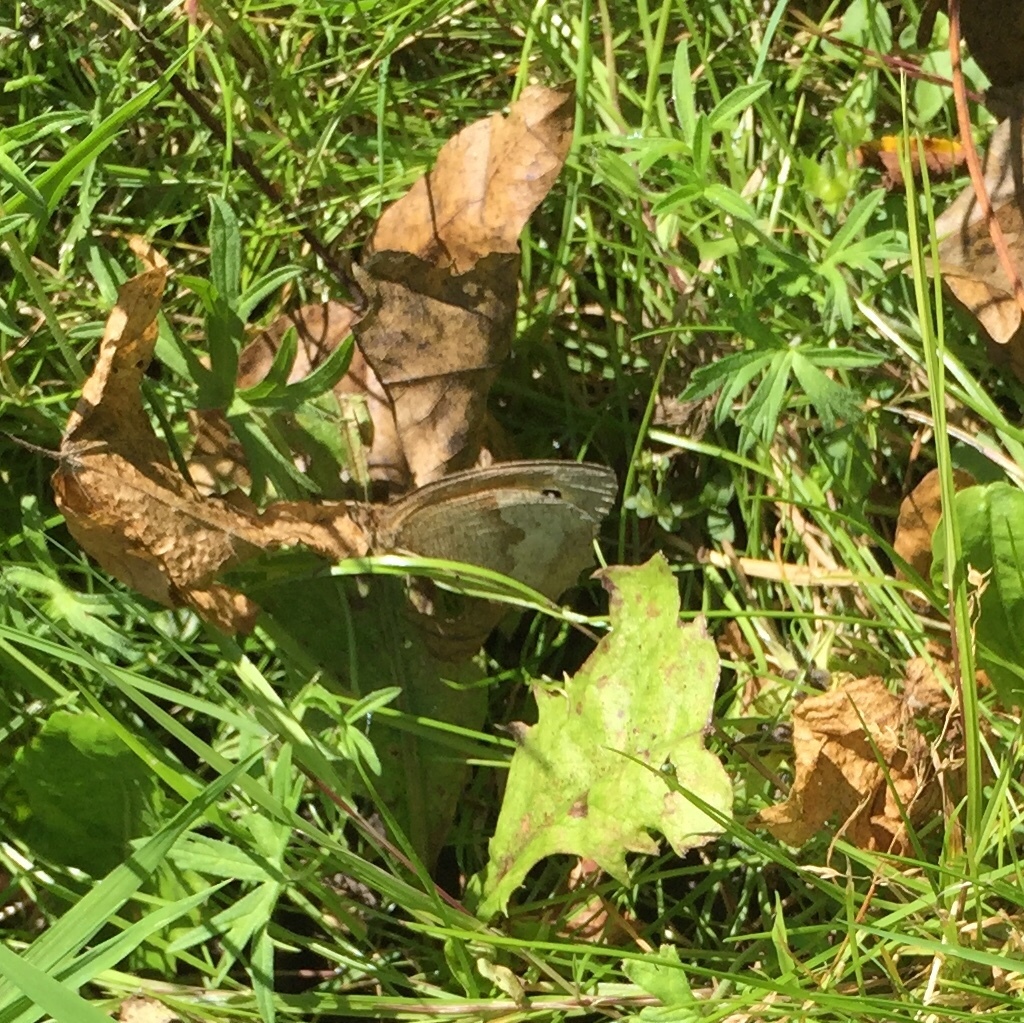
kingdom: Animalia
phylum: Arthropoda
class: Insecta
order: Lepidoptera
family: Nymphalidae
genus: Maniola
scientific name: Maniola jurtina
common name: Meadow brown
